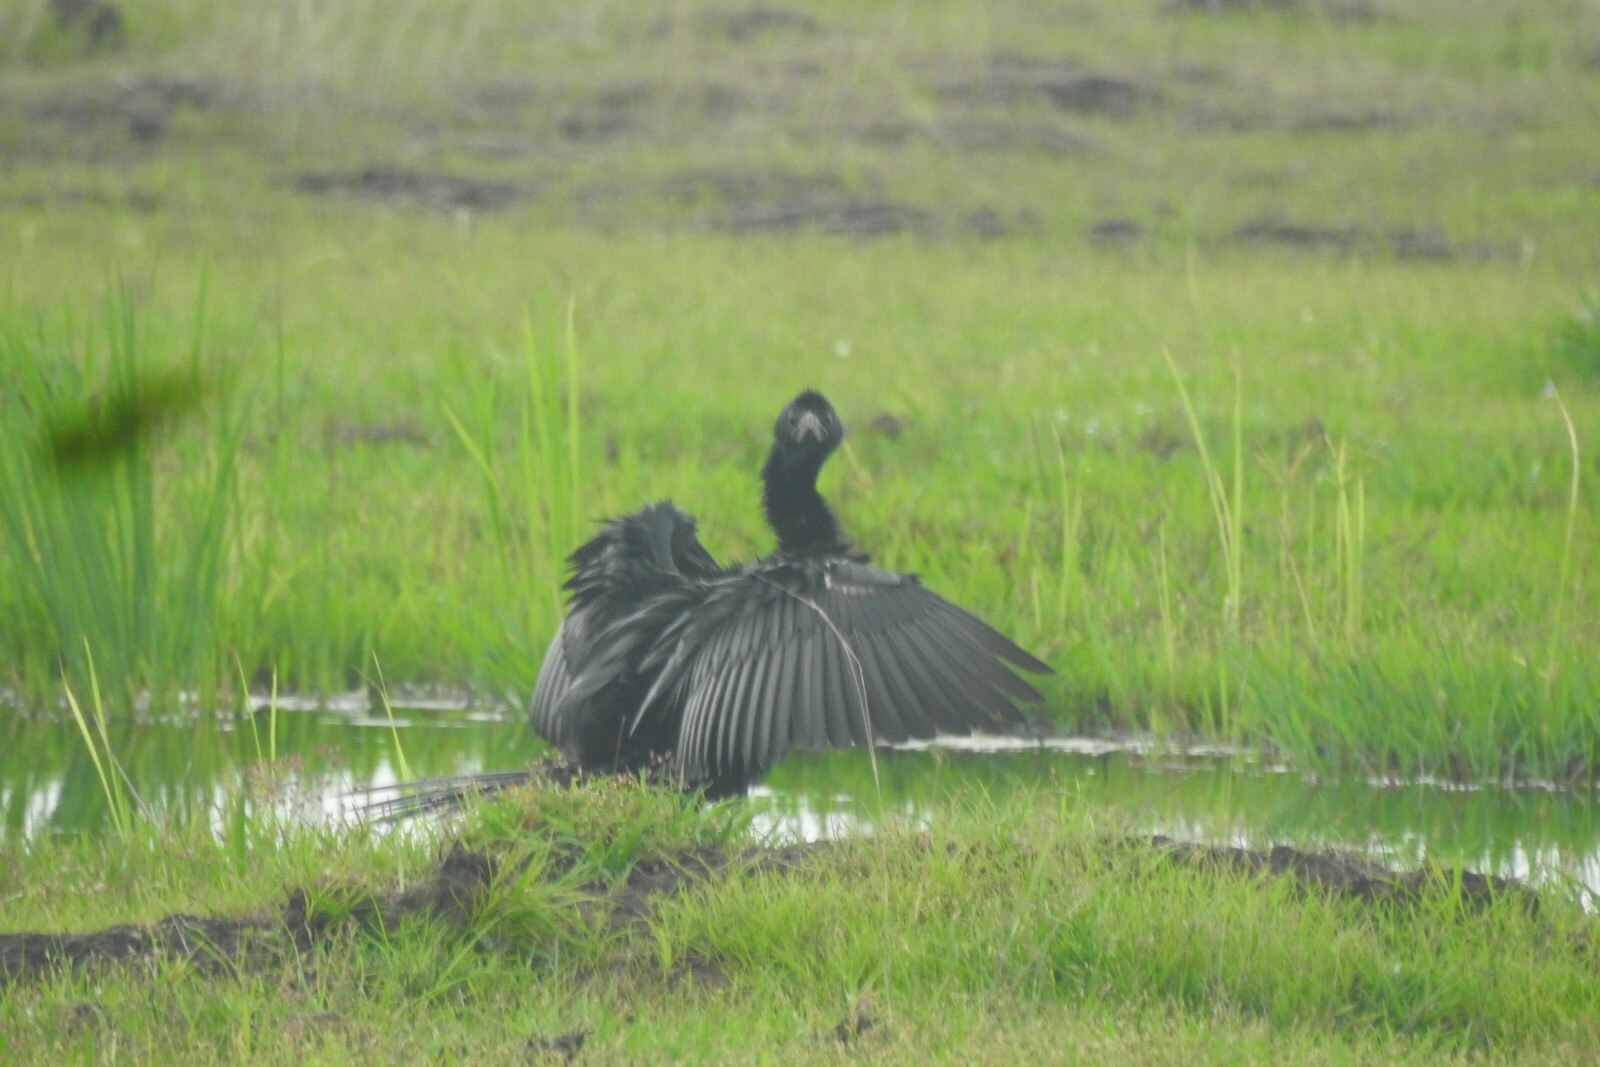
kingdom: Animalia
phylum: Chordata
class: Aves
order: Suliformes
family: Phalacrocoracidae
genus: Microcarbo
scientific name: Microcarbo niger
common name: Little cormorant
